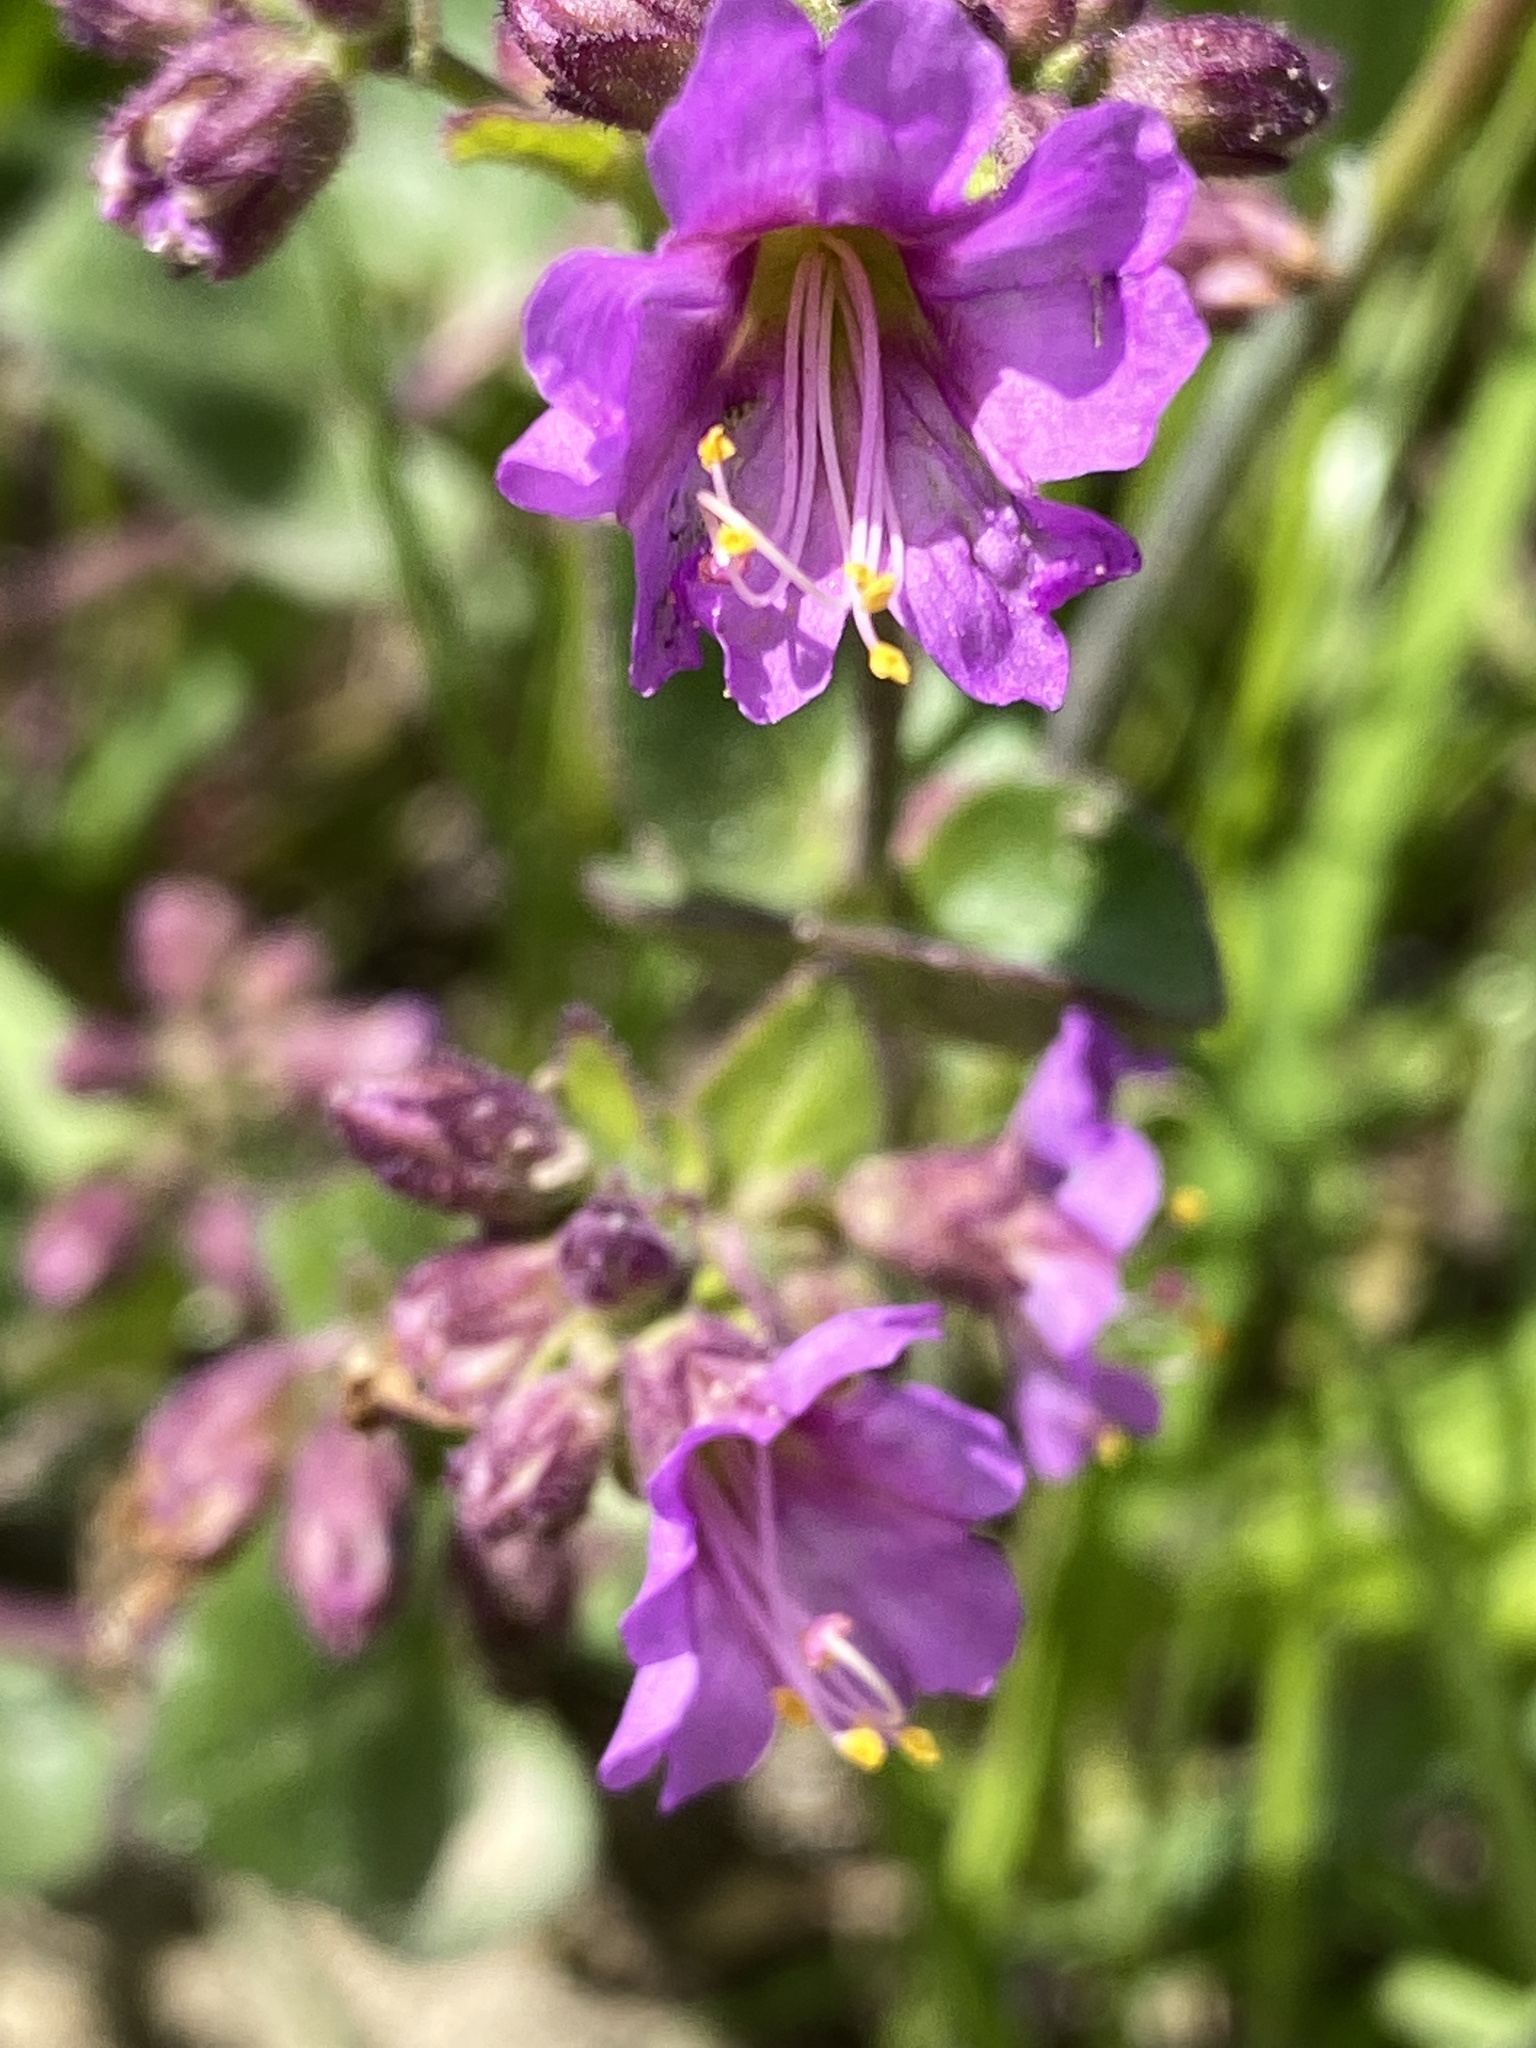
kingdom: Plantae
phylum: Tracheophyta
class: Magnoliopsida
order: Caryophyllales
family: Nyctaginaceae
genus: Mirabilis
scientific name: Mirabilis laevis
